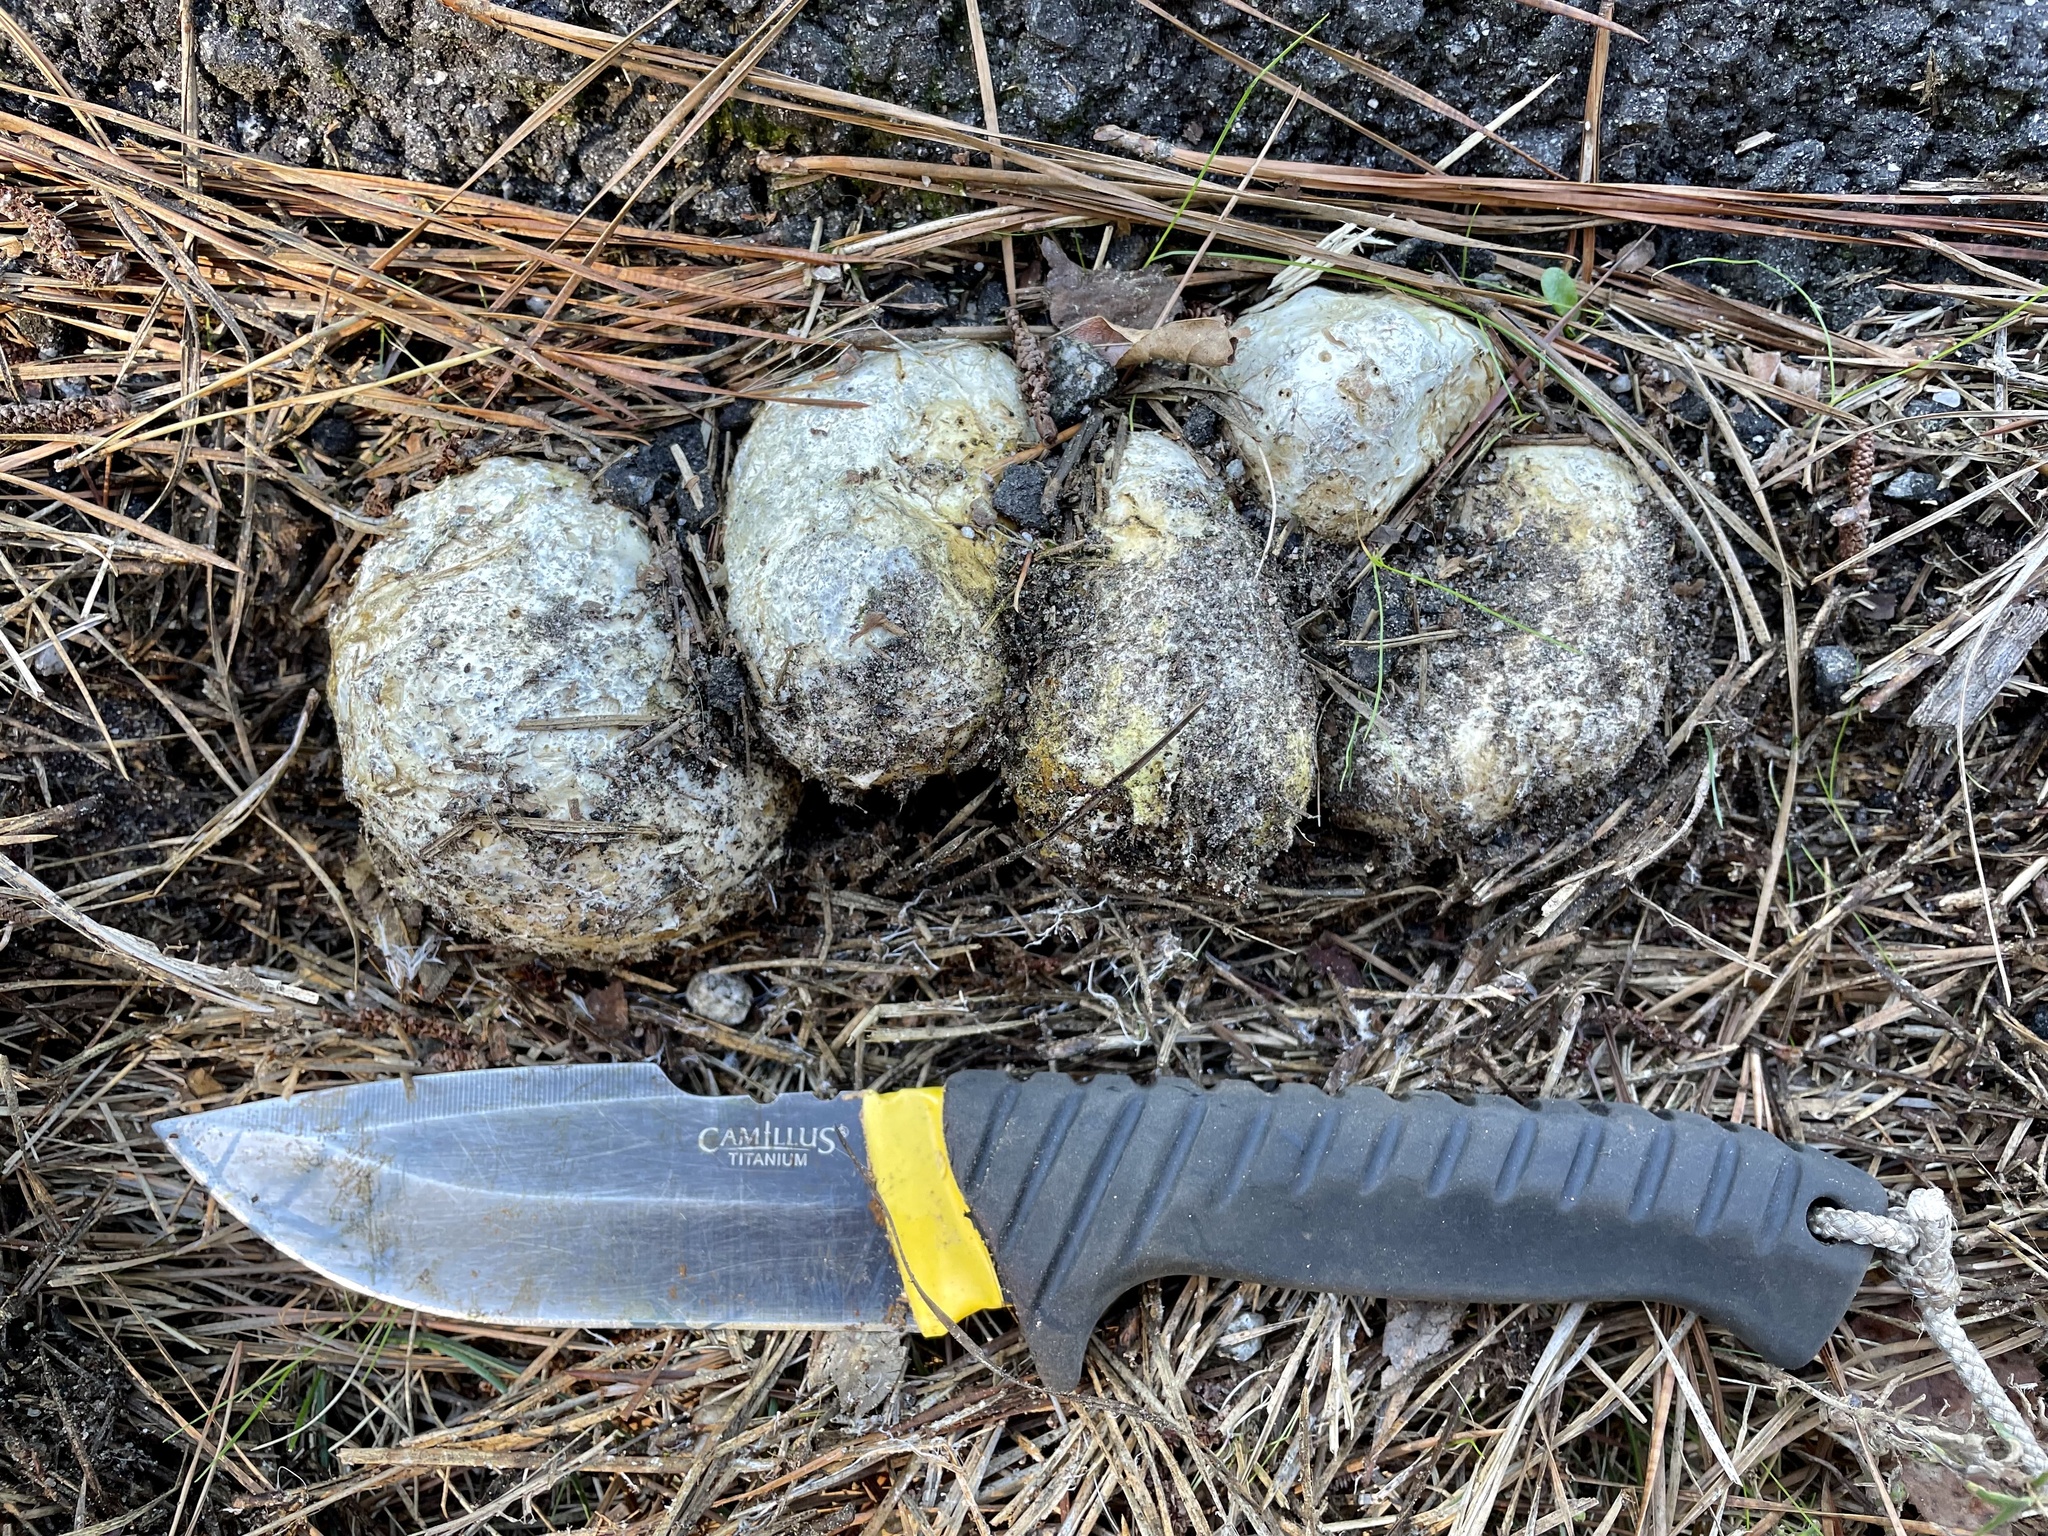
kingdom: Fungi
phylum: Basidiomycota
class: Agaricomycetes
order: Boletales
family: Sclerodermataceae
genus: Scleroderma
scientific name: Scleroderma polyrhizum
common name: Many-rooted earthball
